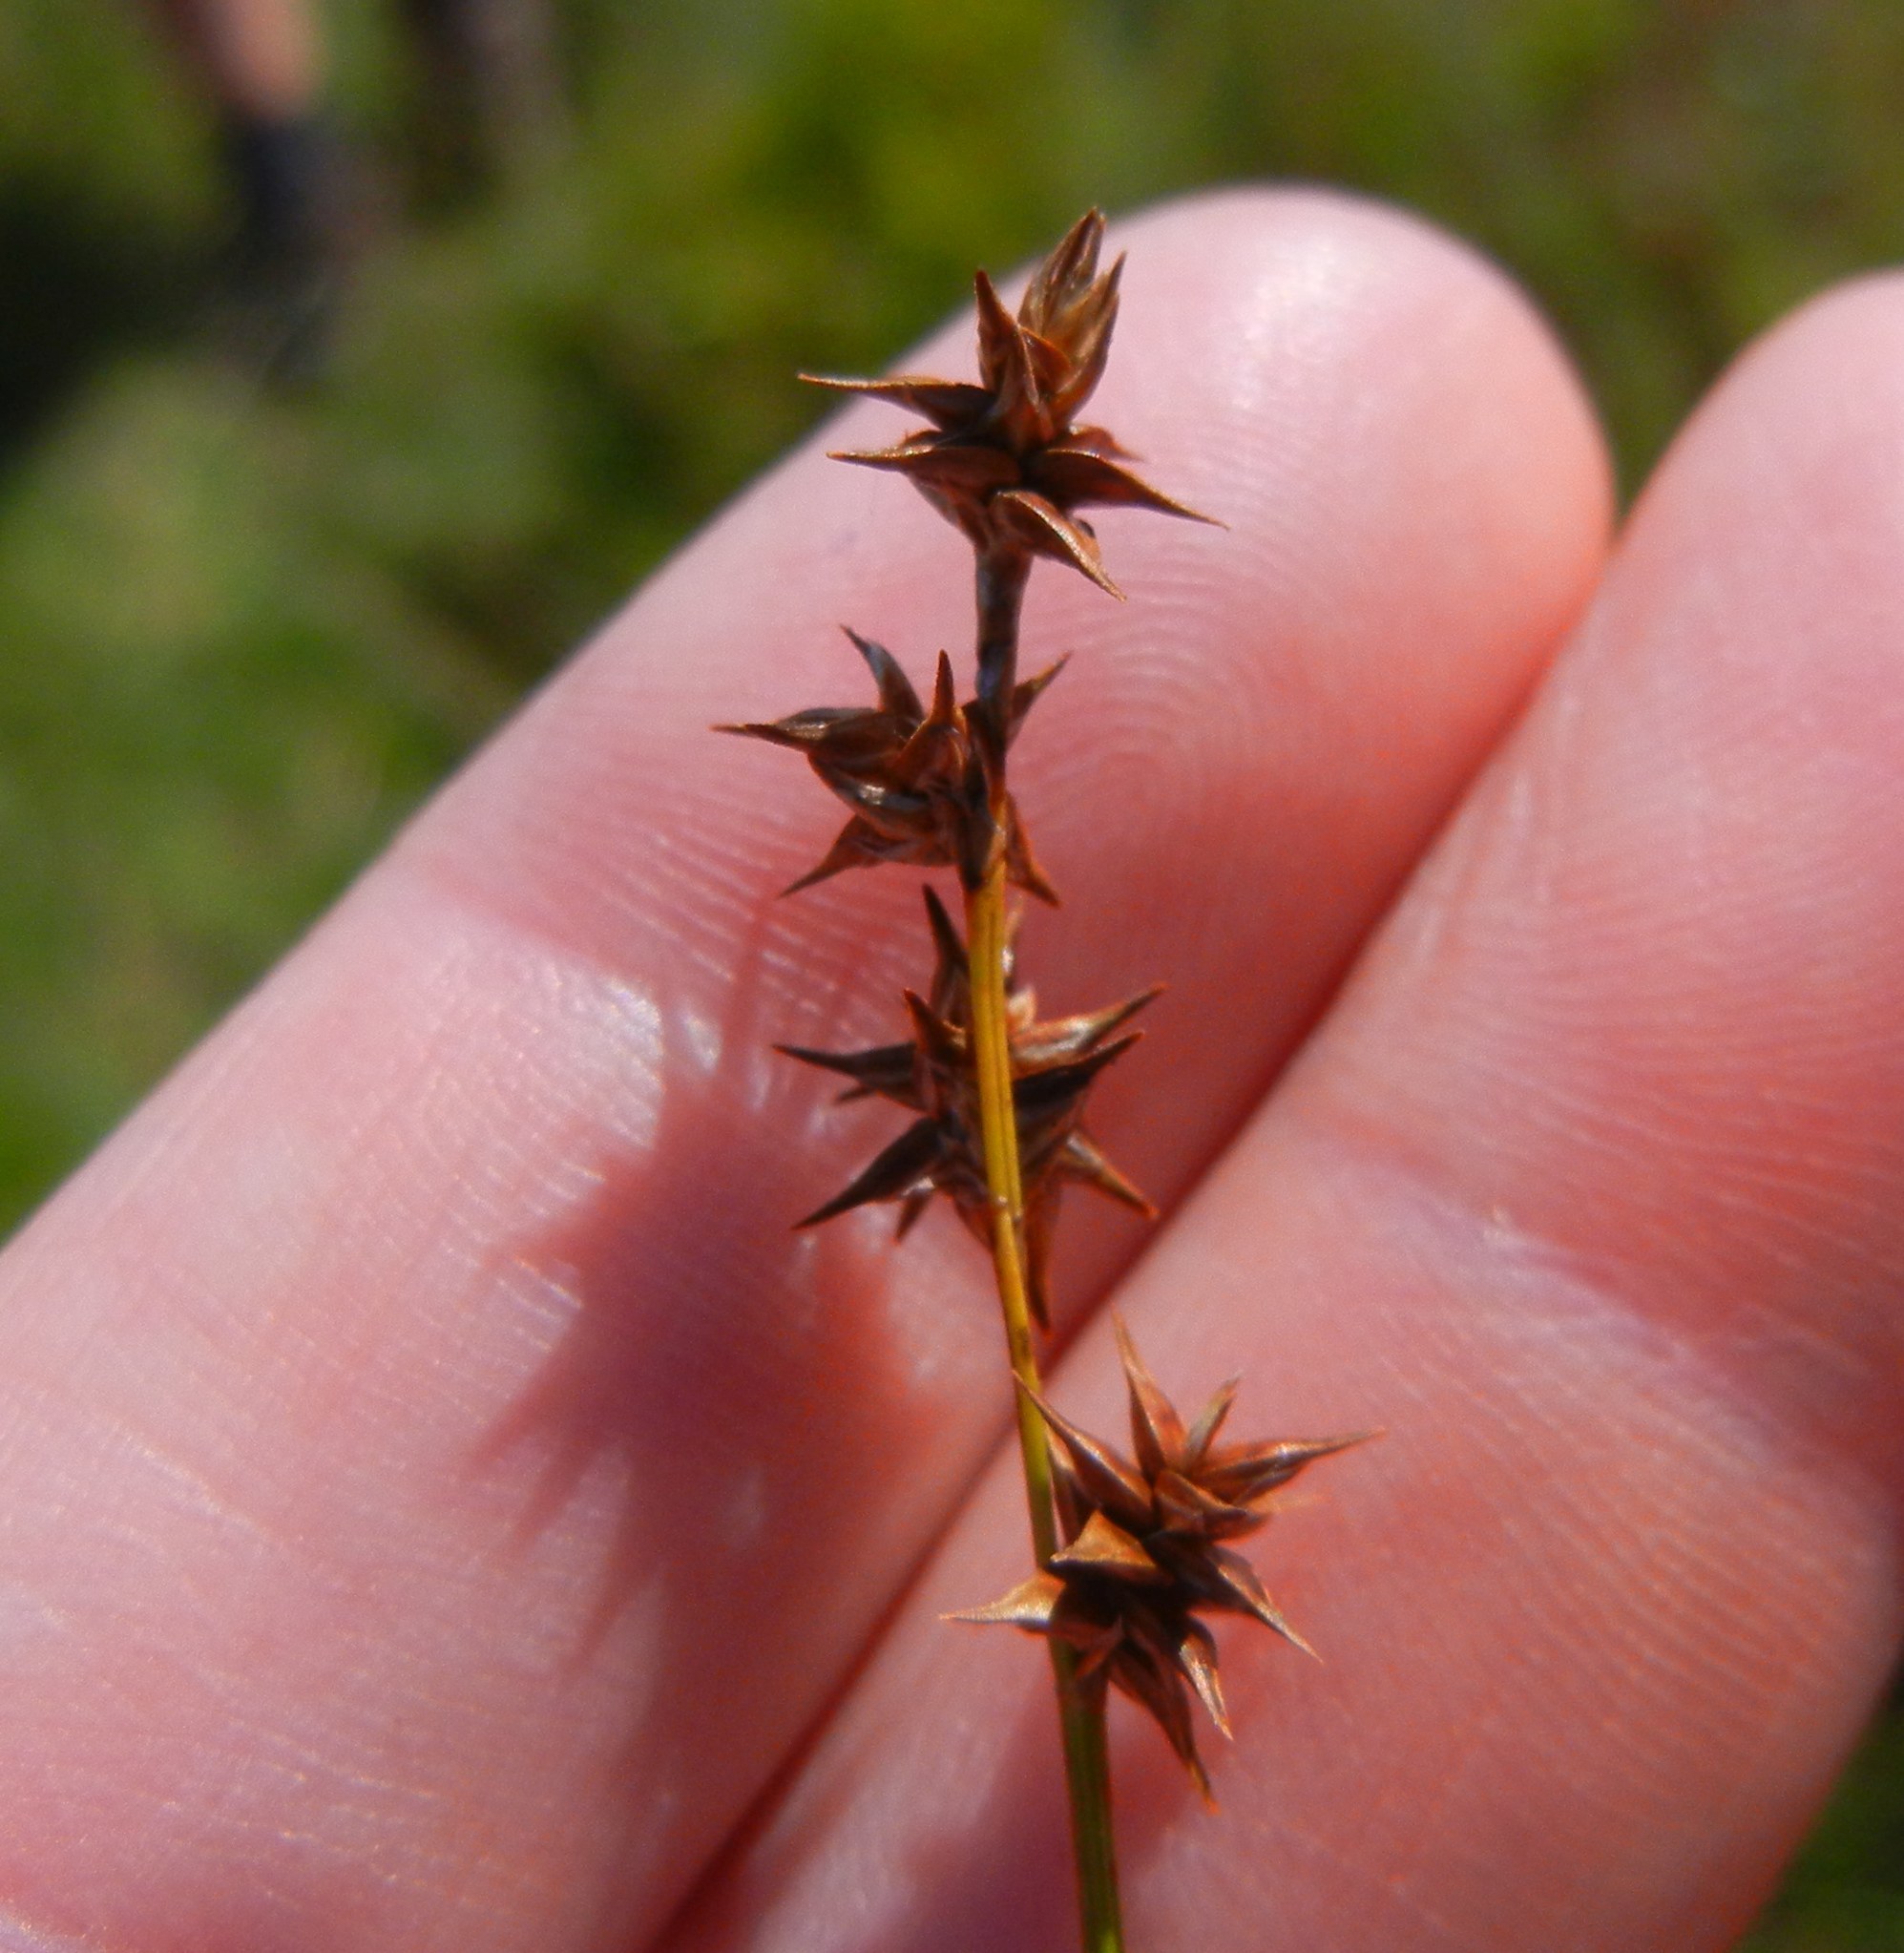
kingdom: Plantae
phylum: Tracheophyta
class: Liliopsida
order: Poales
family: Cyperaceae
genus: Carex
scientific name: Carex echinata
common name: Star sedge
